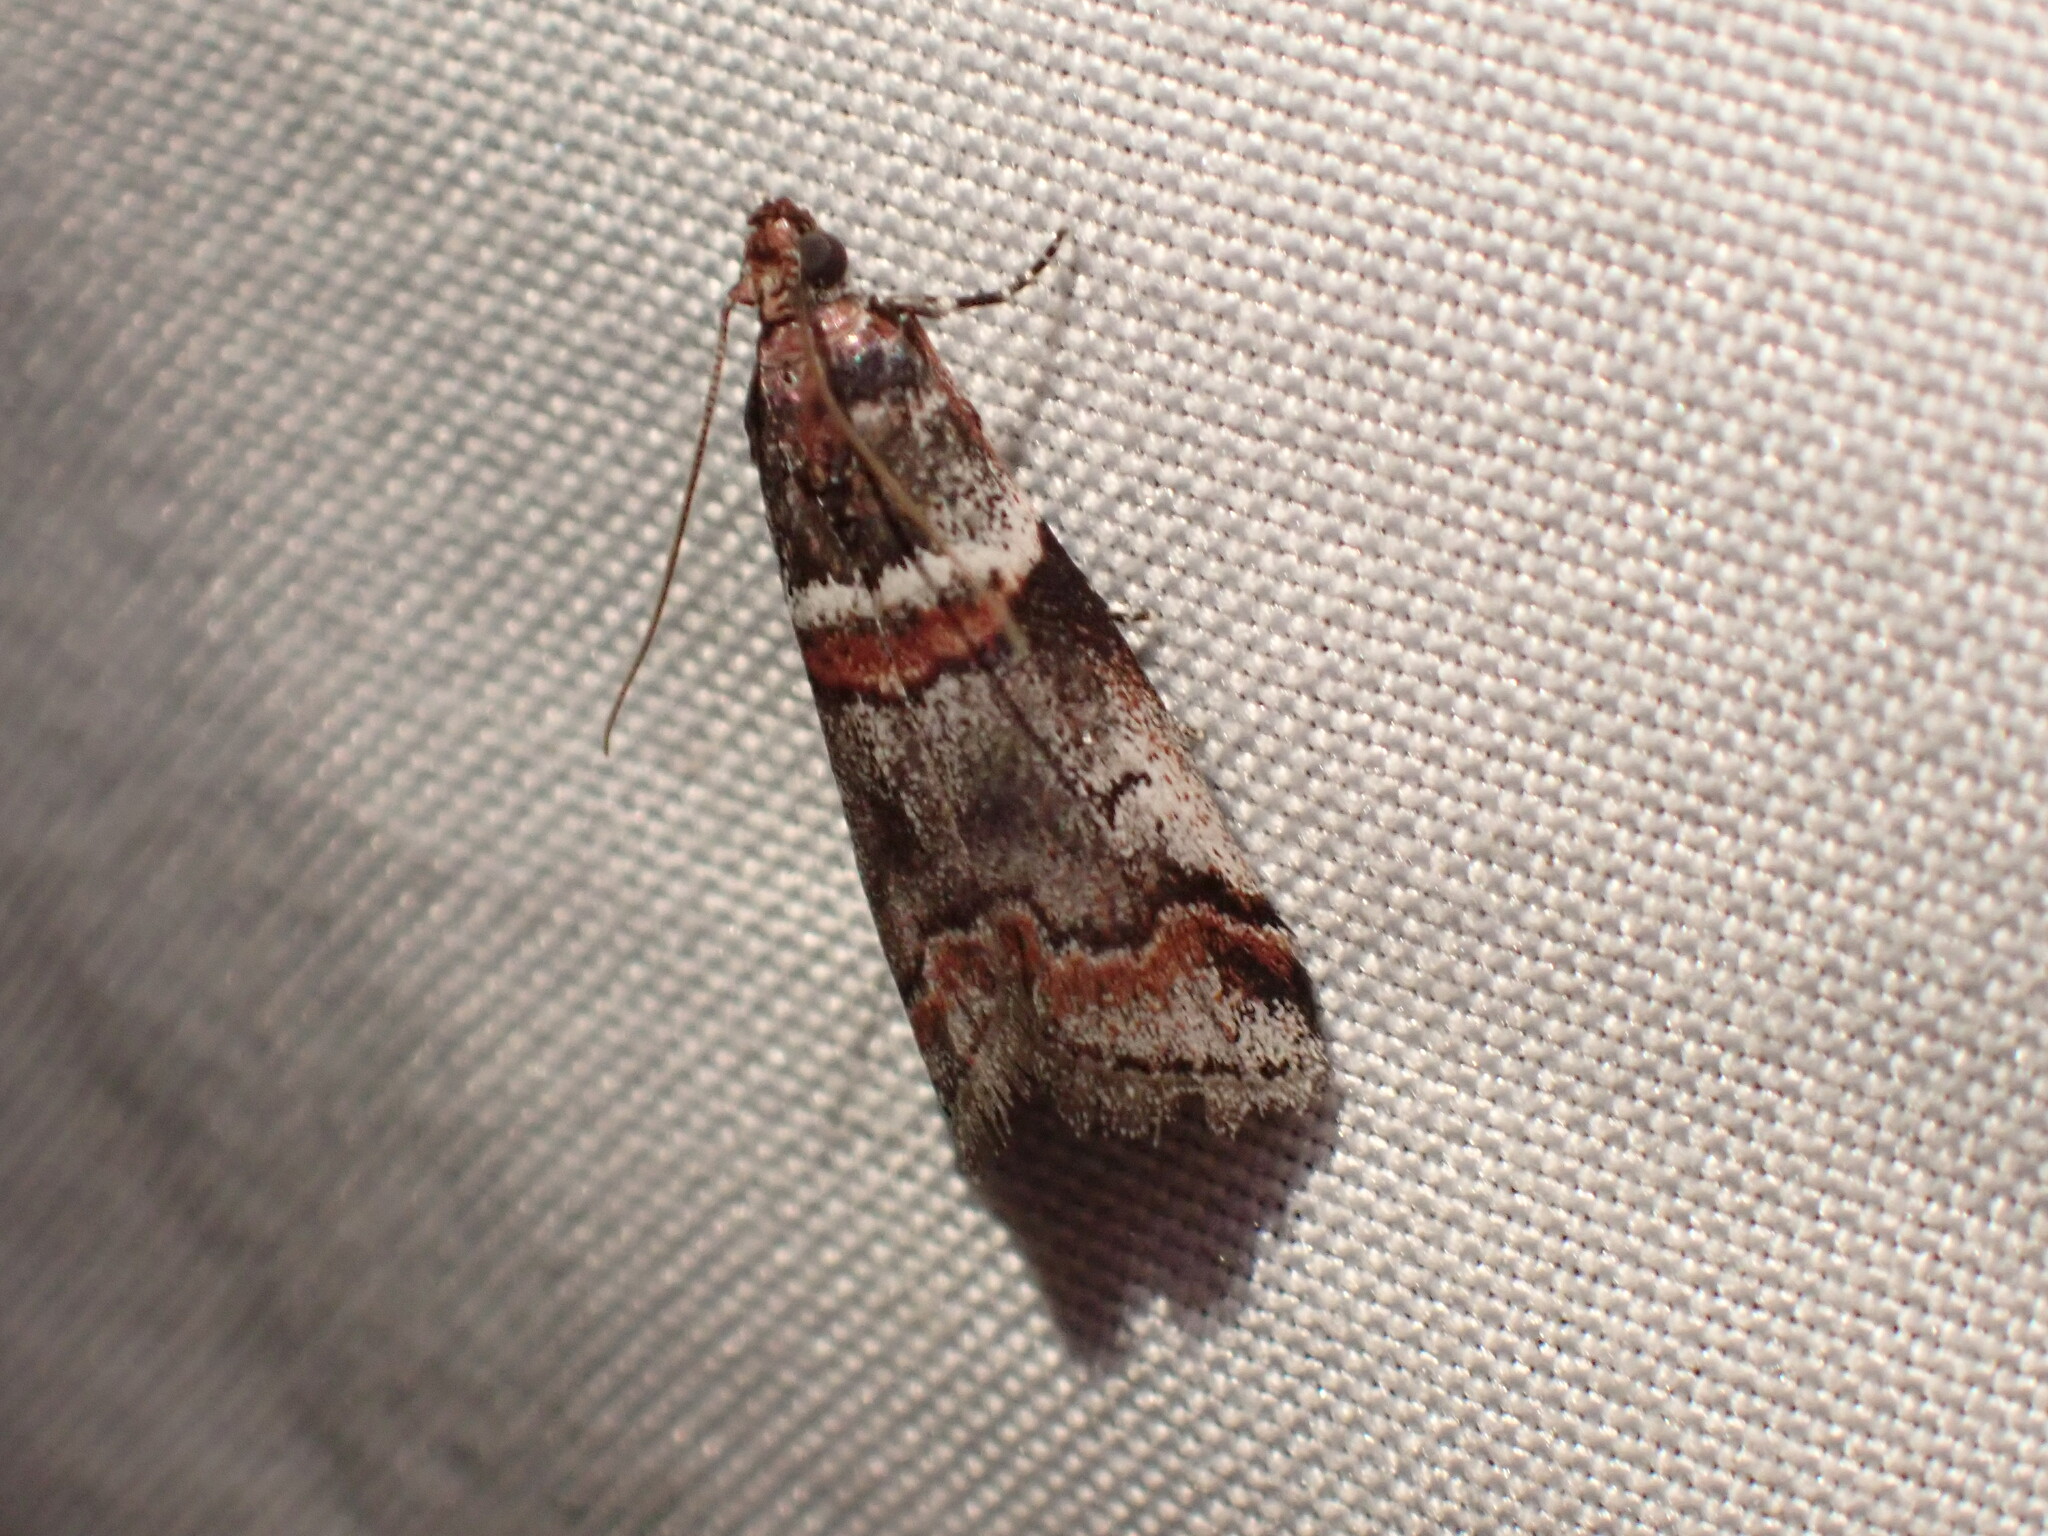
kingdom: Animalia
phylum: Arthropoda
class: Insecta
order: Lepidoptera
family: Pyralidae
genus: Acrobasis
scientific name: Acrobasis tricolorella
